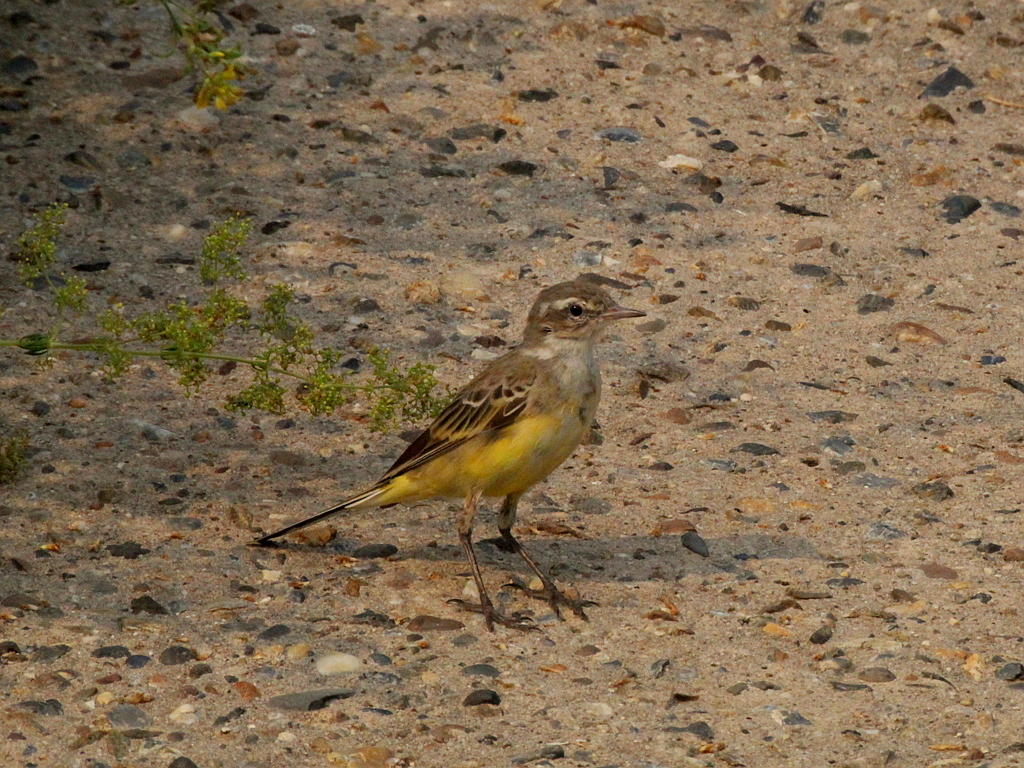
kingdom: Animalia
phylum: Chordata
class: Aves
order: Passeriformes
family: Motacillidae
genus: Motacilla
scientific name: Motacilla flava
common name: Western yellow wagtail
